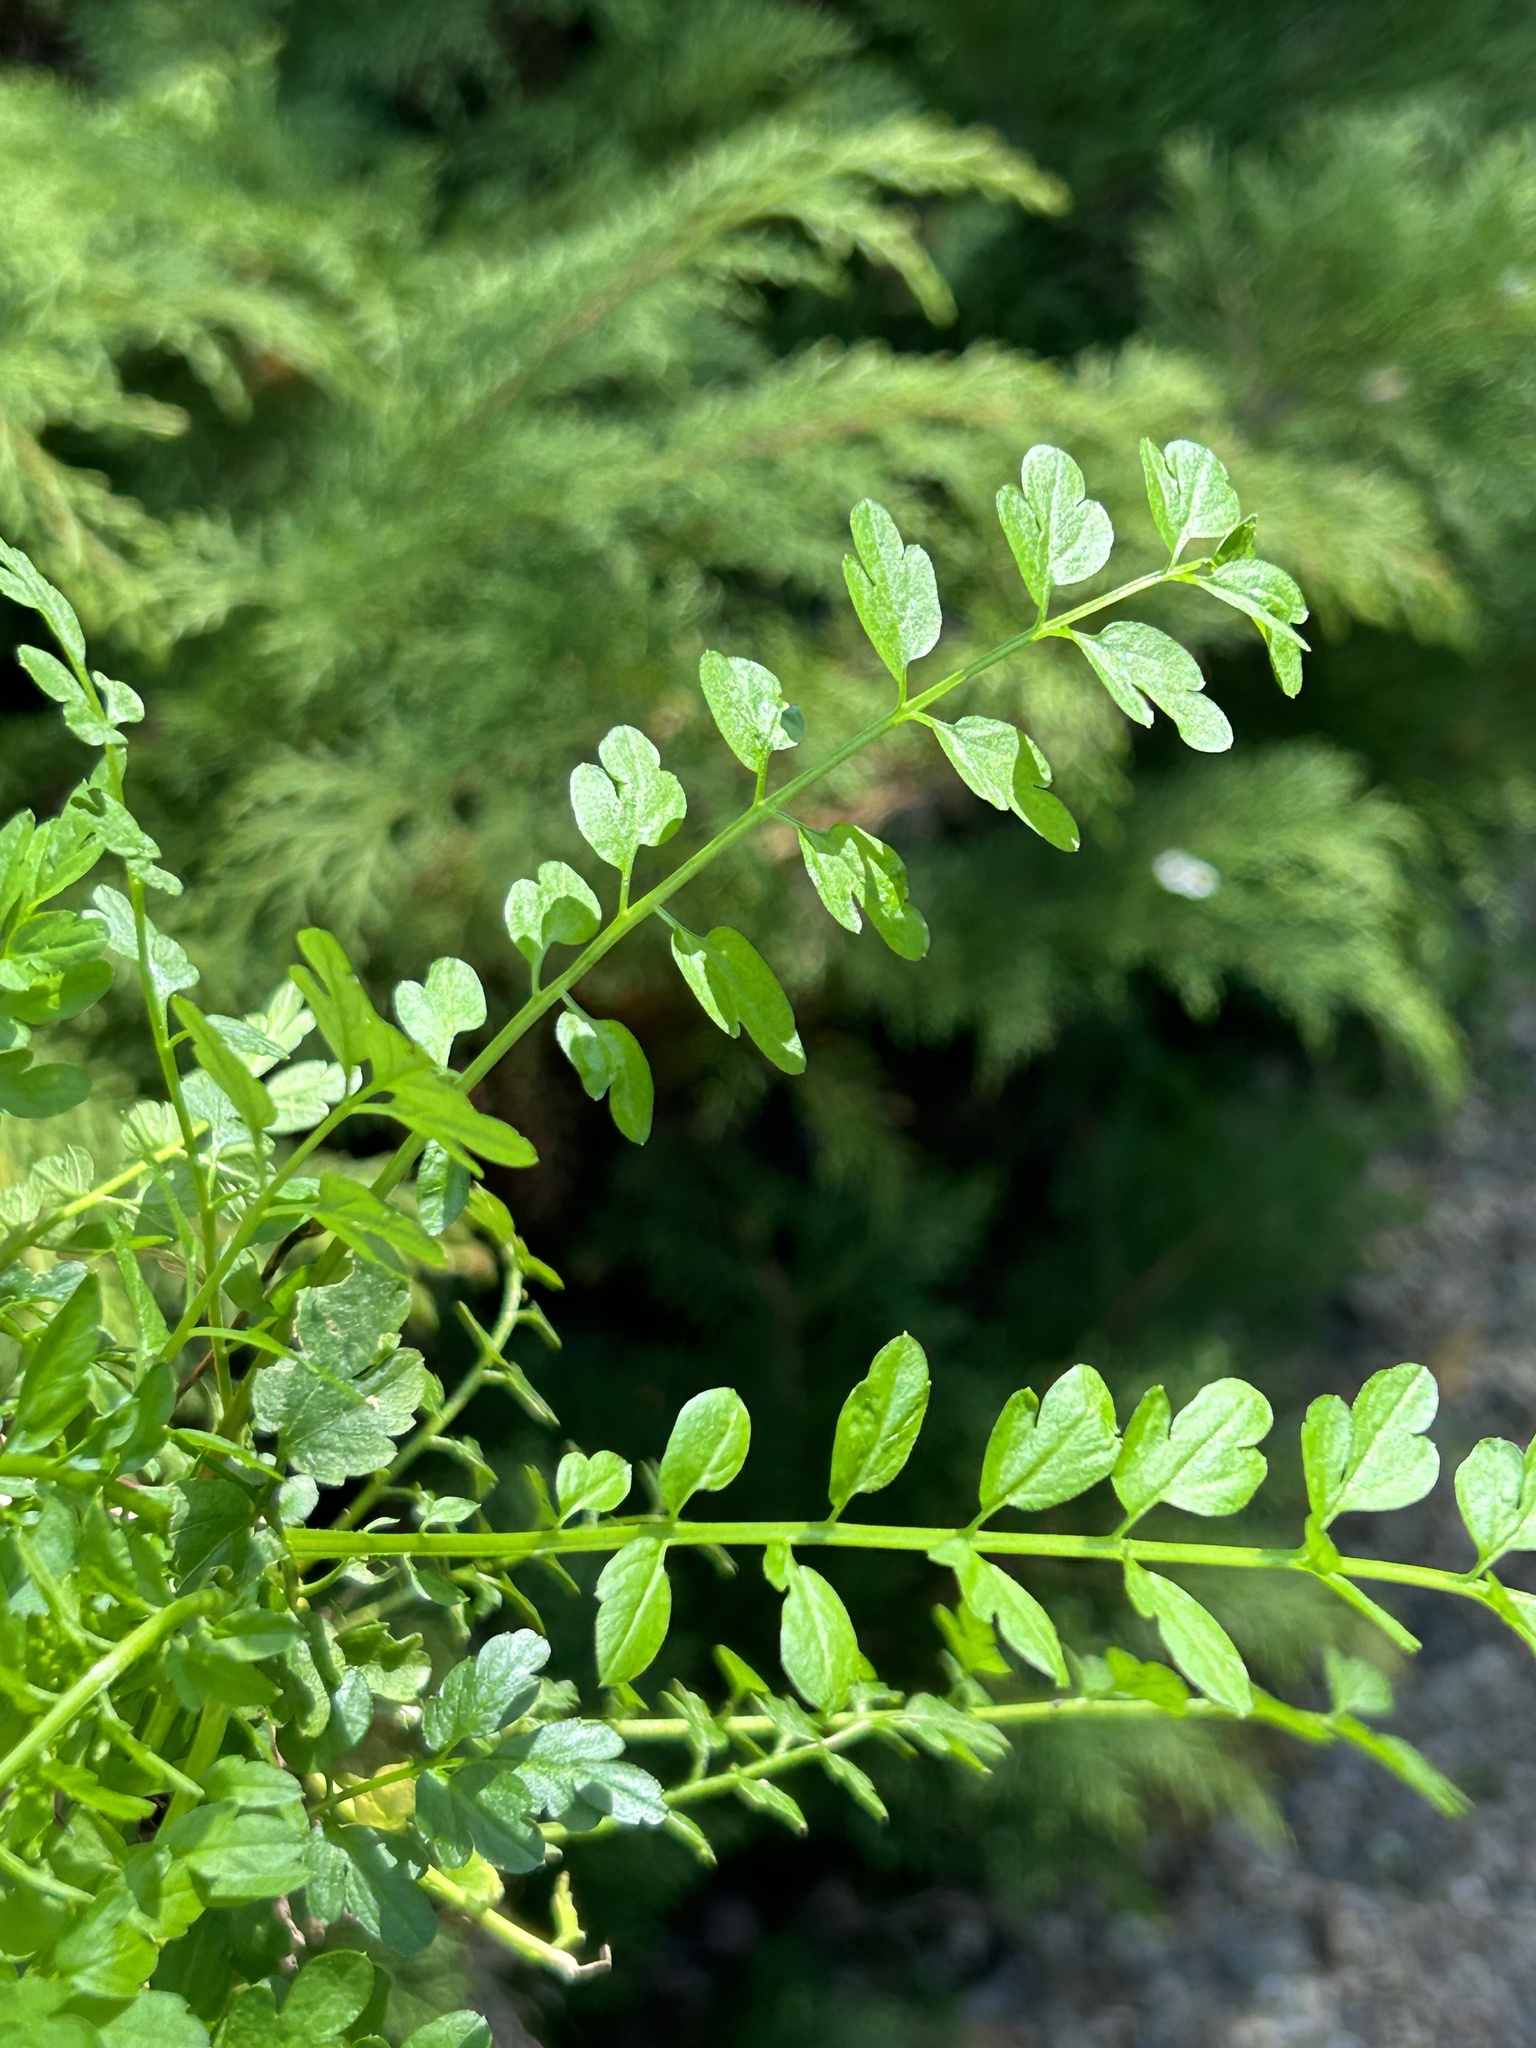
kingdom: Plantae
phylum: Tracheophyta
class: Magnoliopsida
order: Brassicales
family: Brassicaceae
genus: Cardamine
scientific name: Cardamine impatiens
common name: Narrow-leaved bitter-cress
